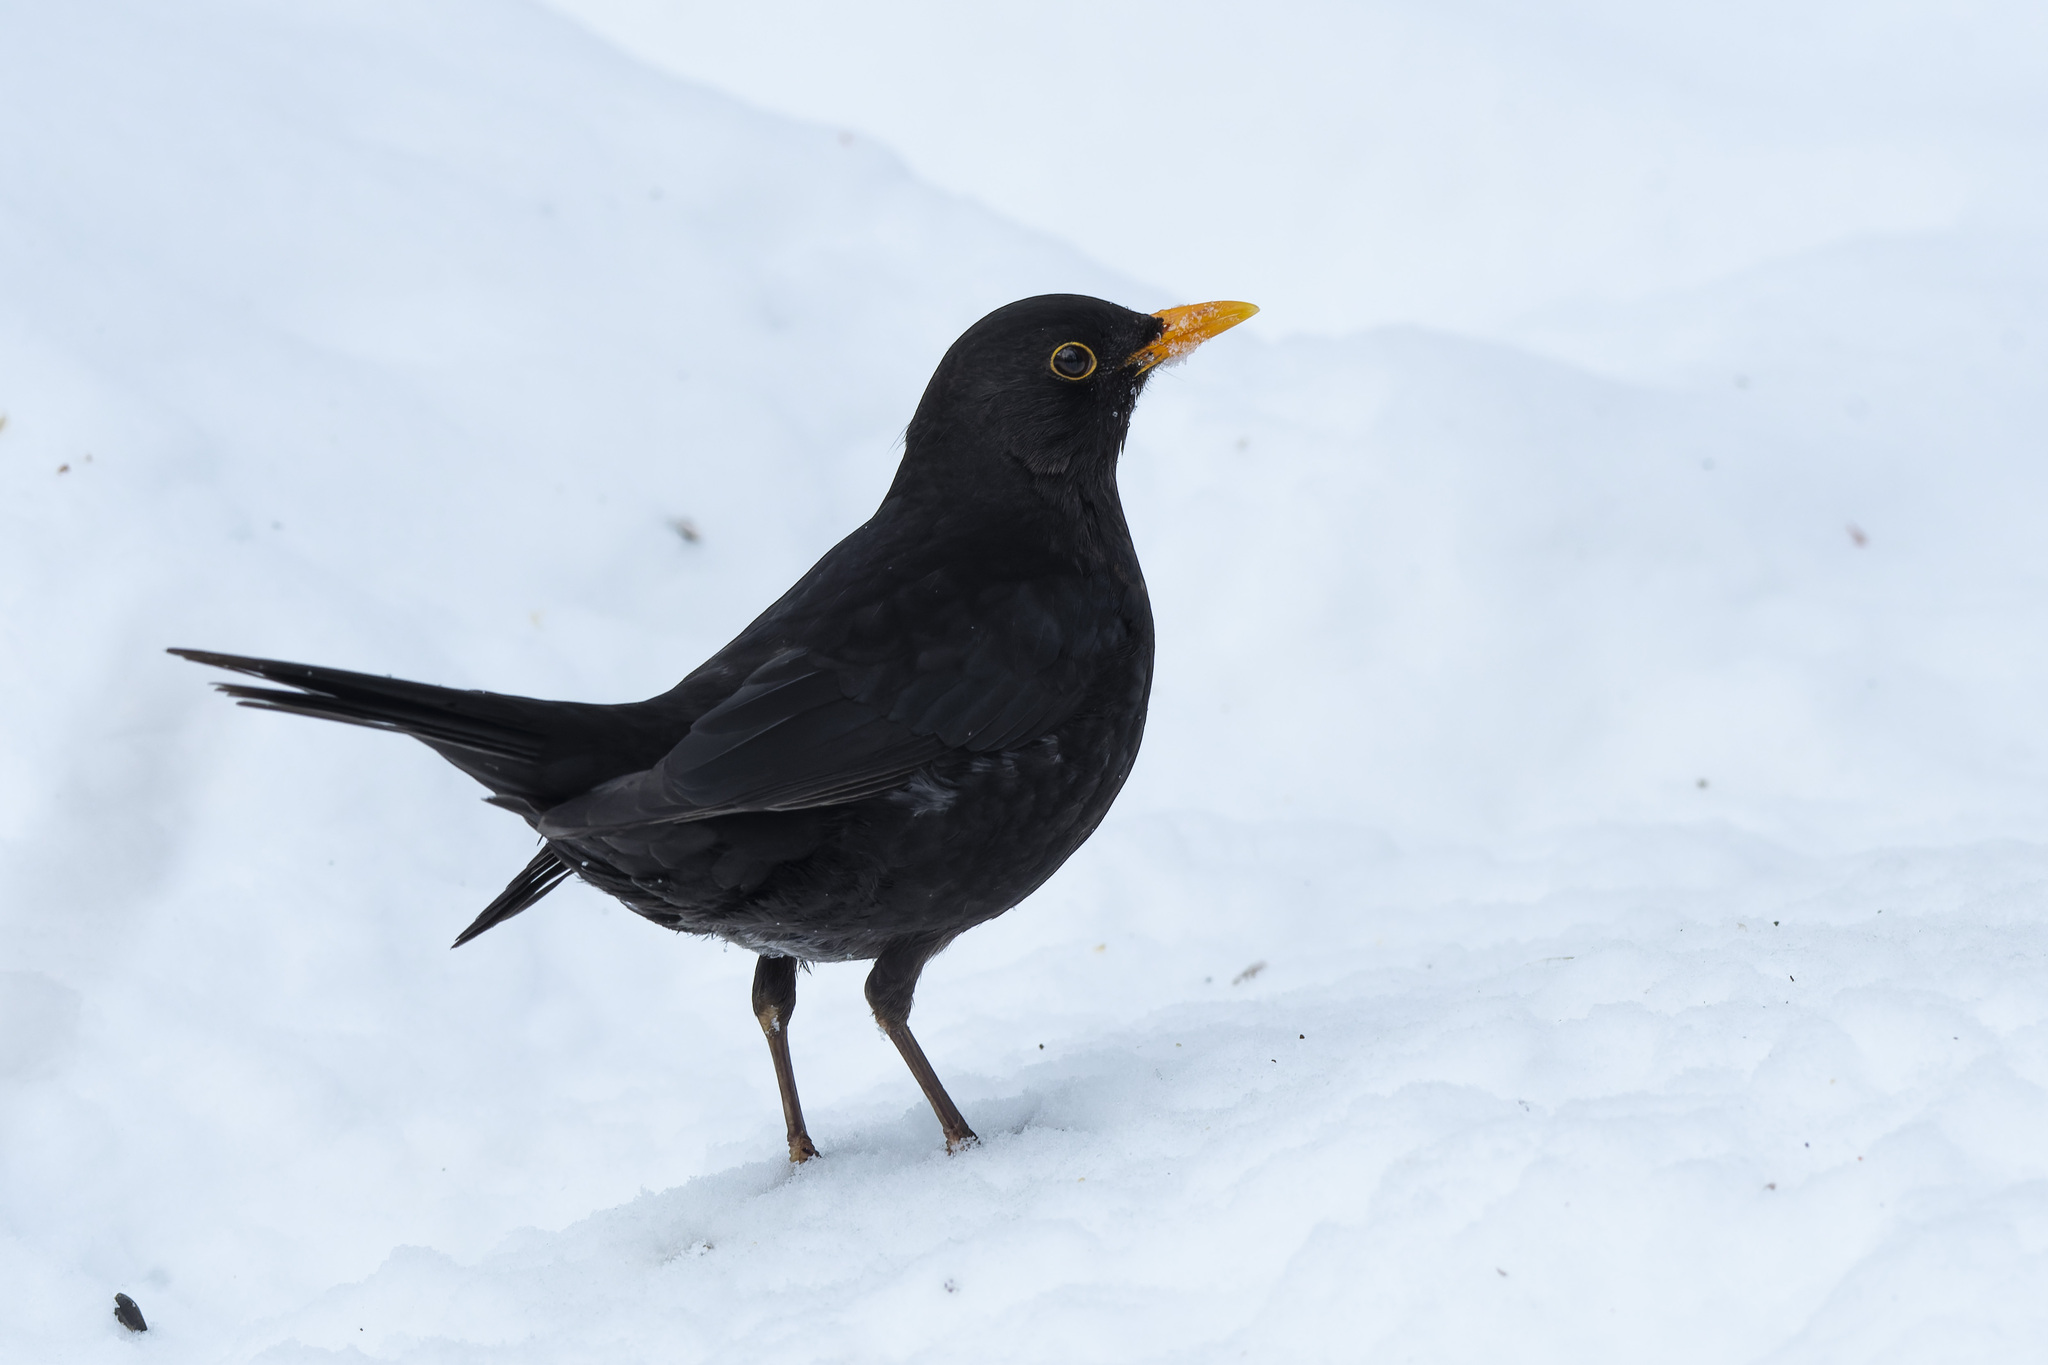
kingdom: Animalia
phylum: Chordata
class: Aves
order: Passeriformes
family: Turdidae
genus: Turdus
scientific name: Turdus merula
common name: Common blackbird
